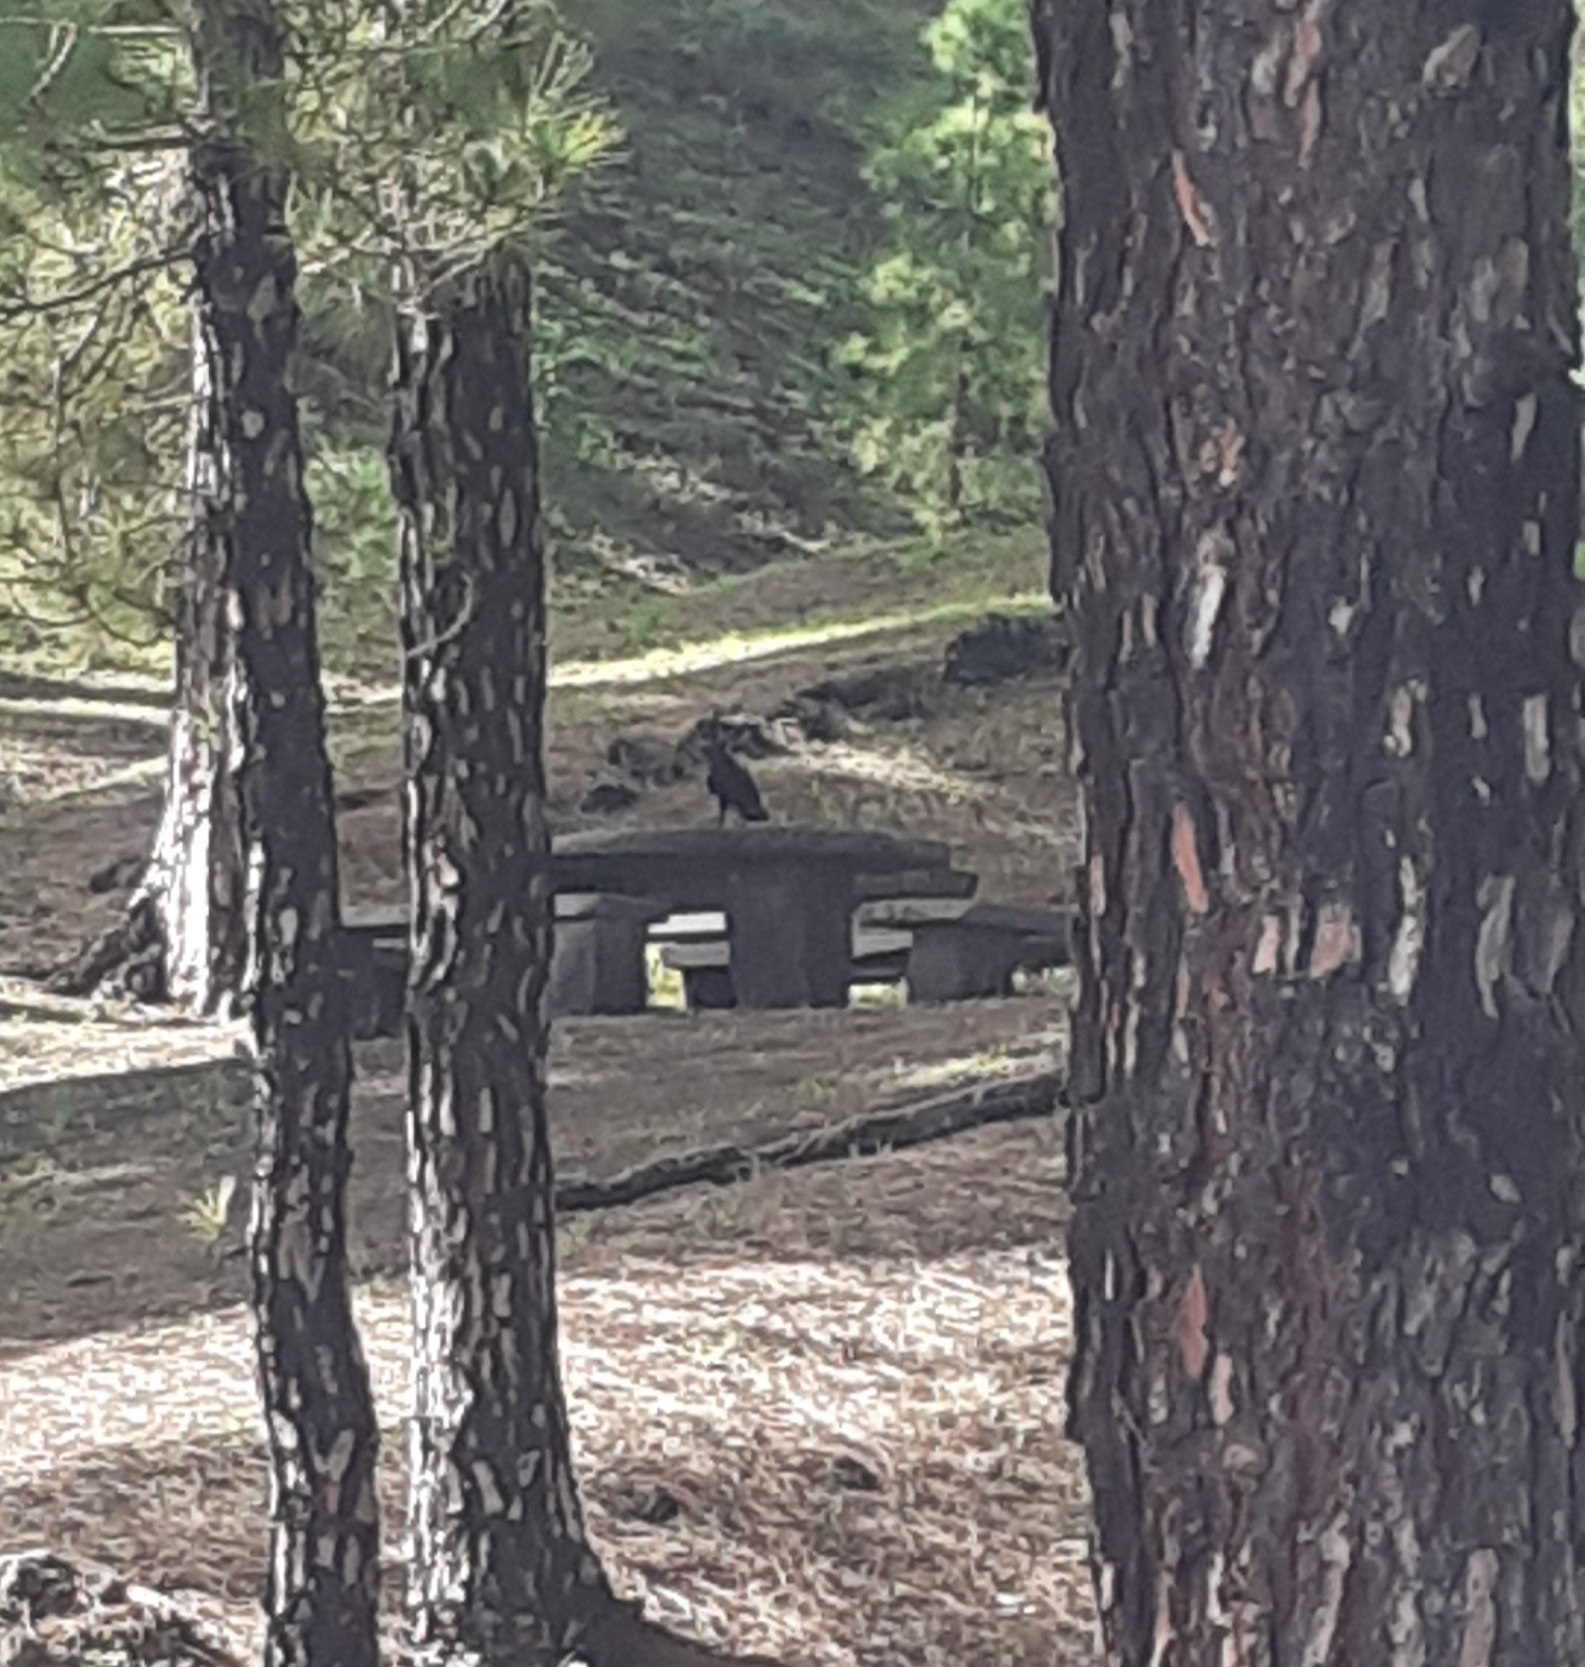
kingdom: Animalia
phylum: Chordata
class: Aves
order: Passeriformes
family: Corvidae
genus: Corvus
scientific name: Corvus corax
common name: Common raven
